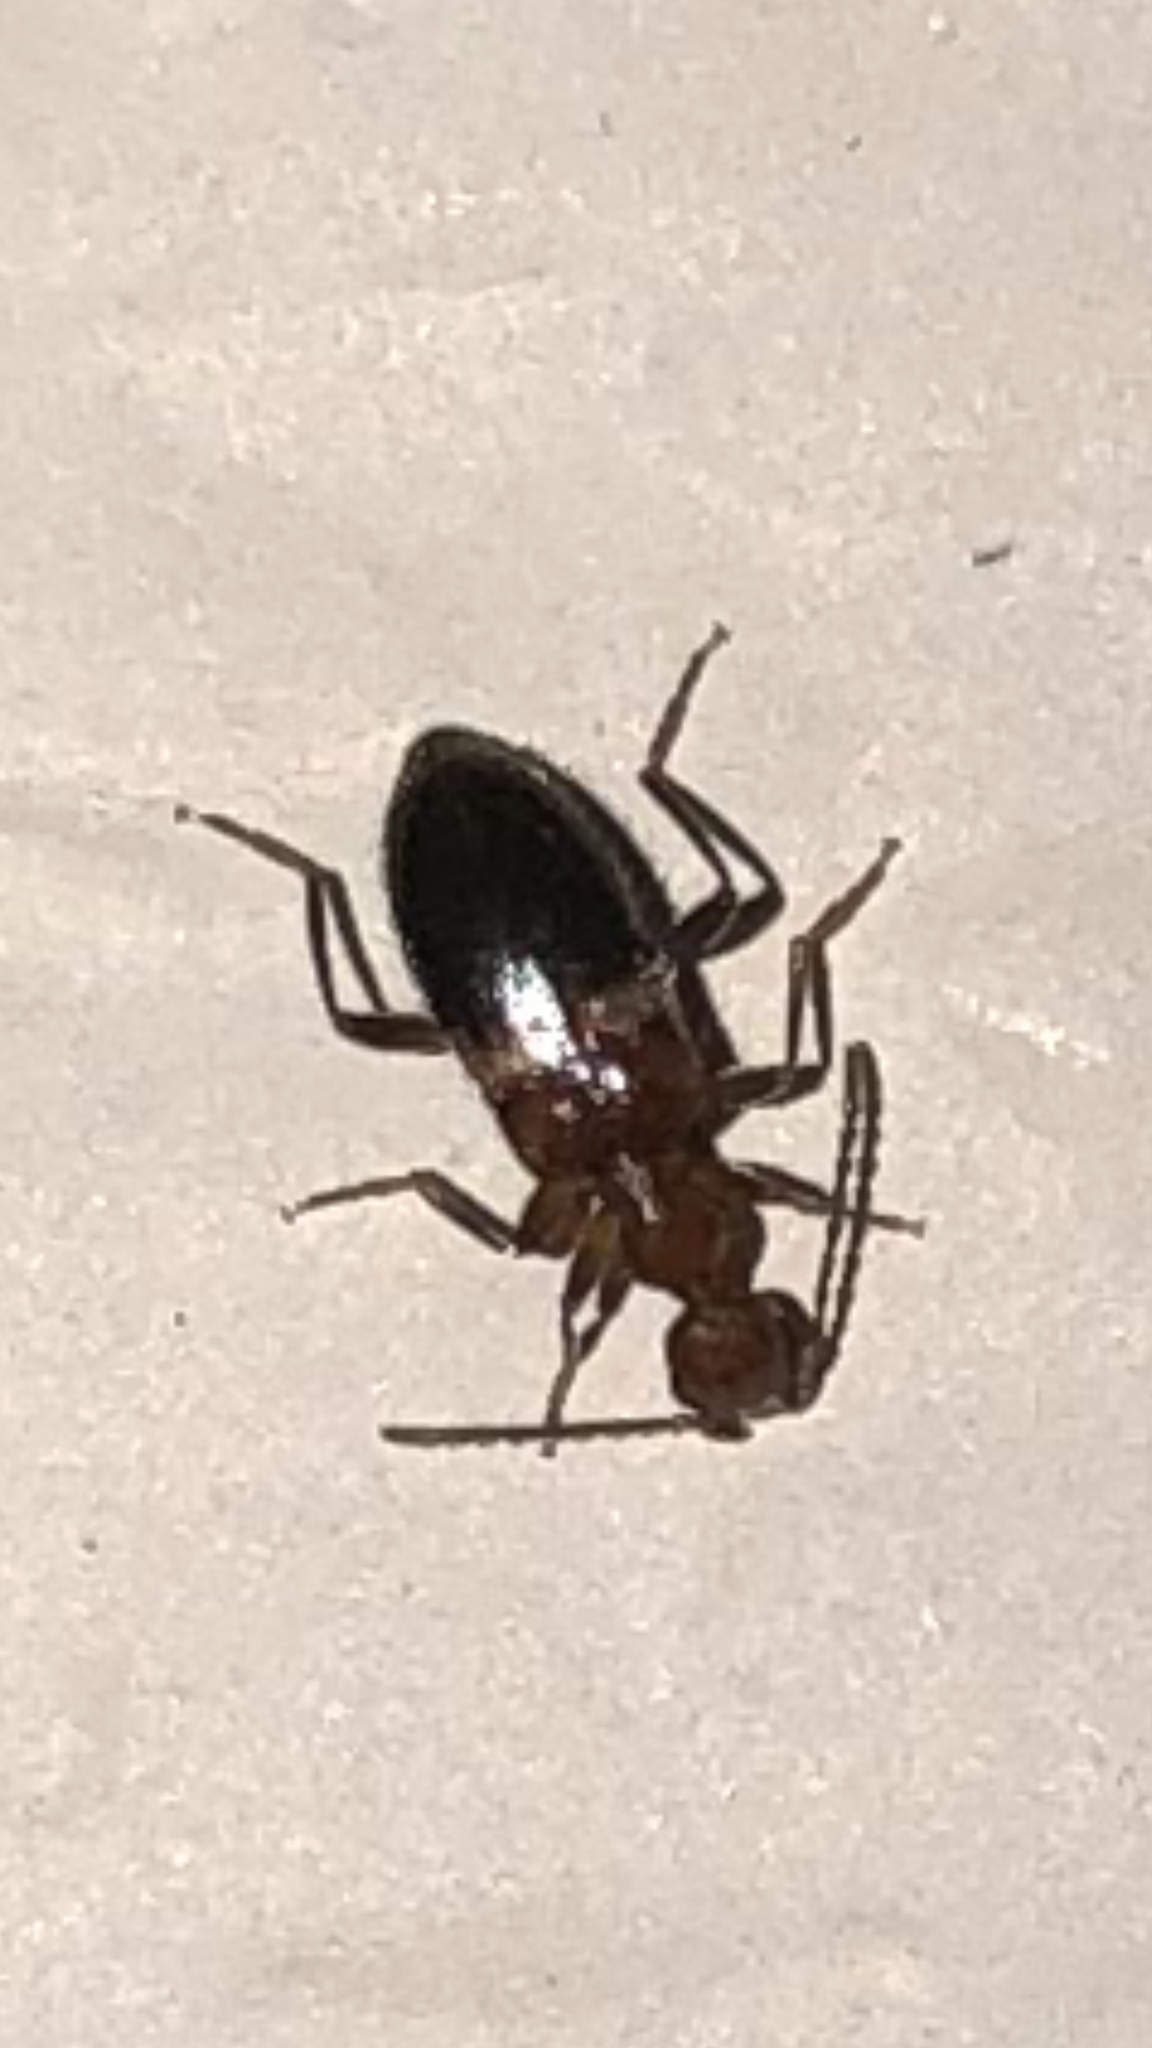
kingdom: Animalia
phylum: Arthropoda
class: Insecta
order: Coleoptera
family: Anthicidae
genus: Malporus
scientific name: Malporus cinctus
